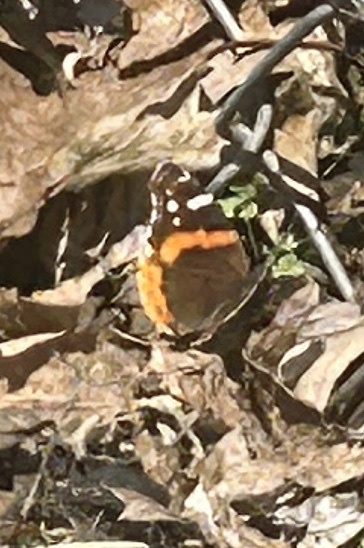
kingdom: Animalia
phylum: Arthropoda
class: Insecta
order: Lepidoptera
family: Nymphalidae
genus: Vanessa
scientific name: Vanessa atalanta
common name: Red admiral
